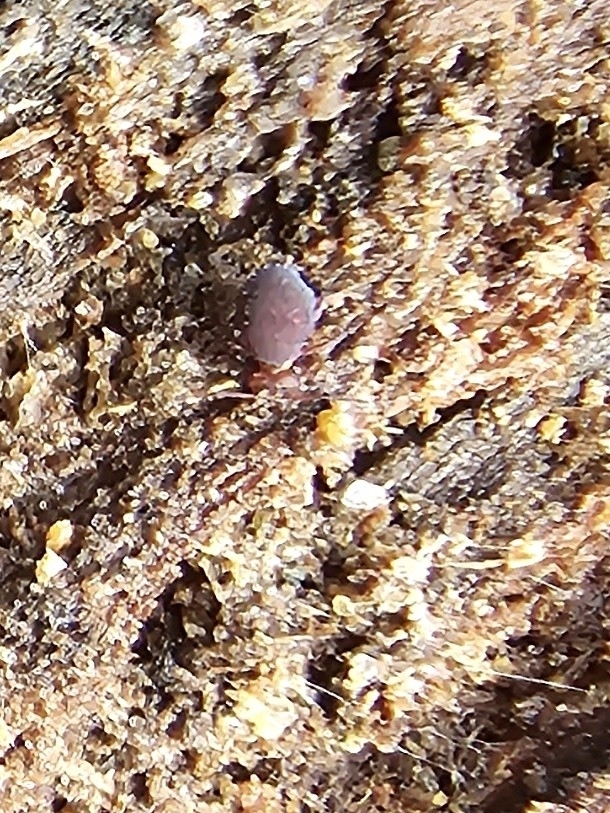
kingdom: Animalia
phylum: Arthropoda
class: Collembola
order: Symphypleona
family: Dicyrtomidae
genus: Dicyrtoma
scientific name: Dicyrtoma fusca
